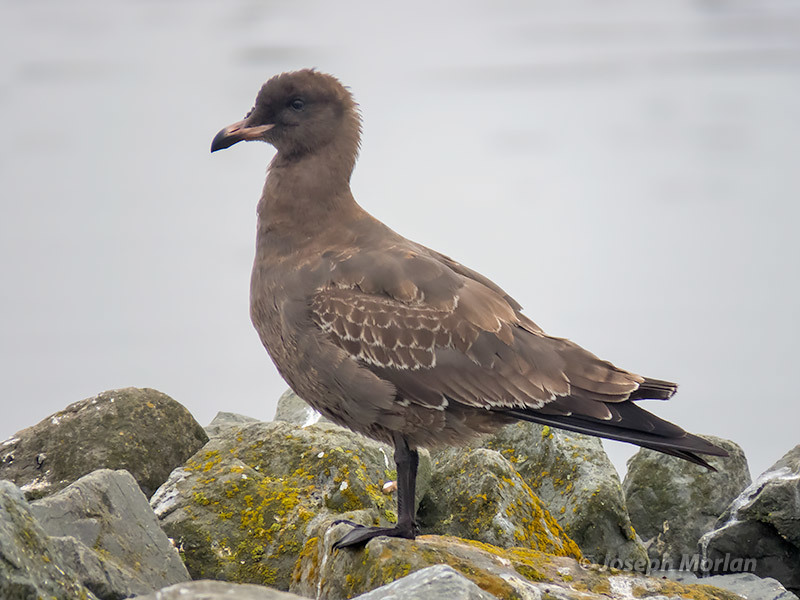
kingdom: Animalia
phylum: Chordata
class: Aves
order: Charadriiformes
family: Laridae
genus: Larus
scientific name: Larus heermanni
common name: Heermann's gull
